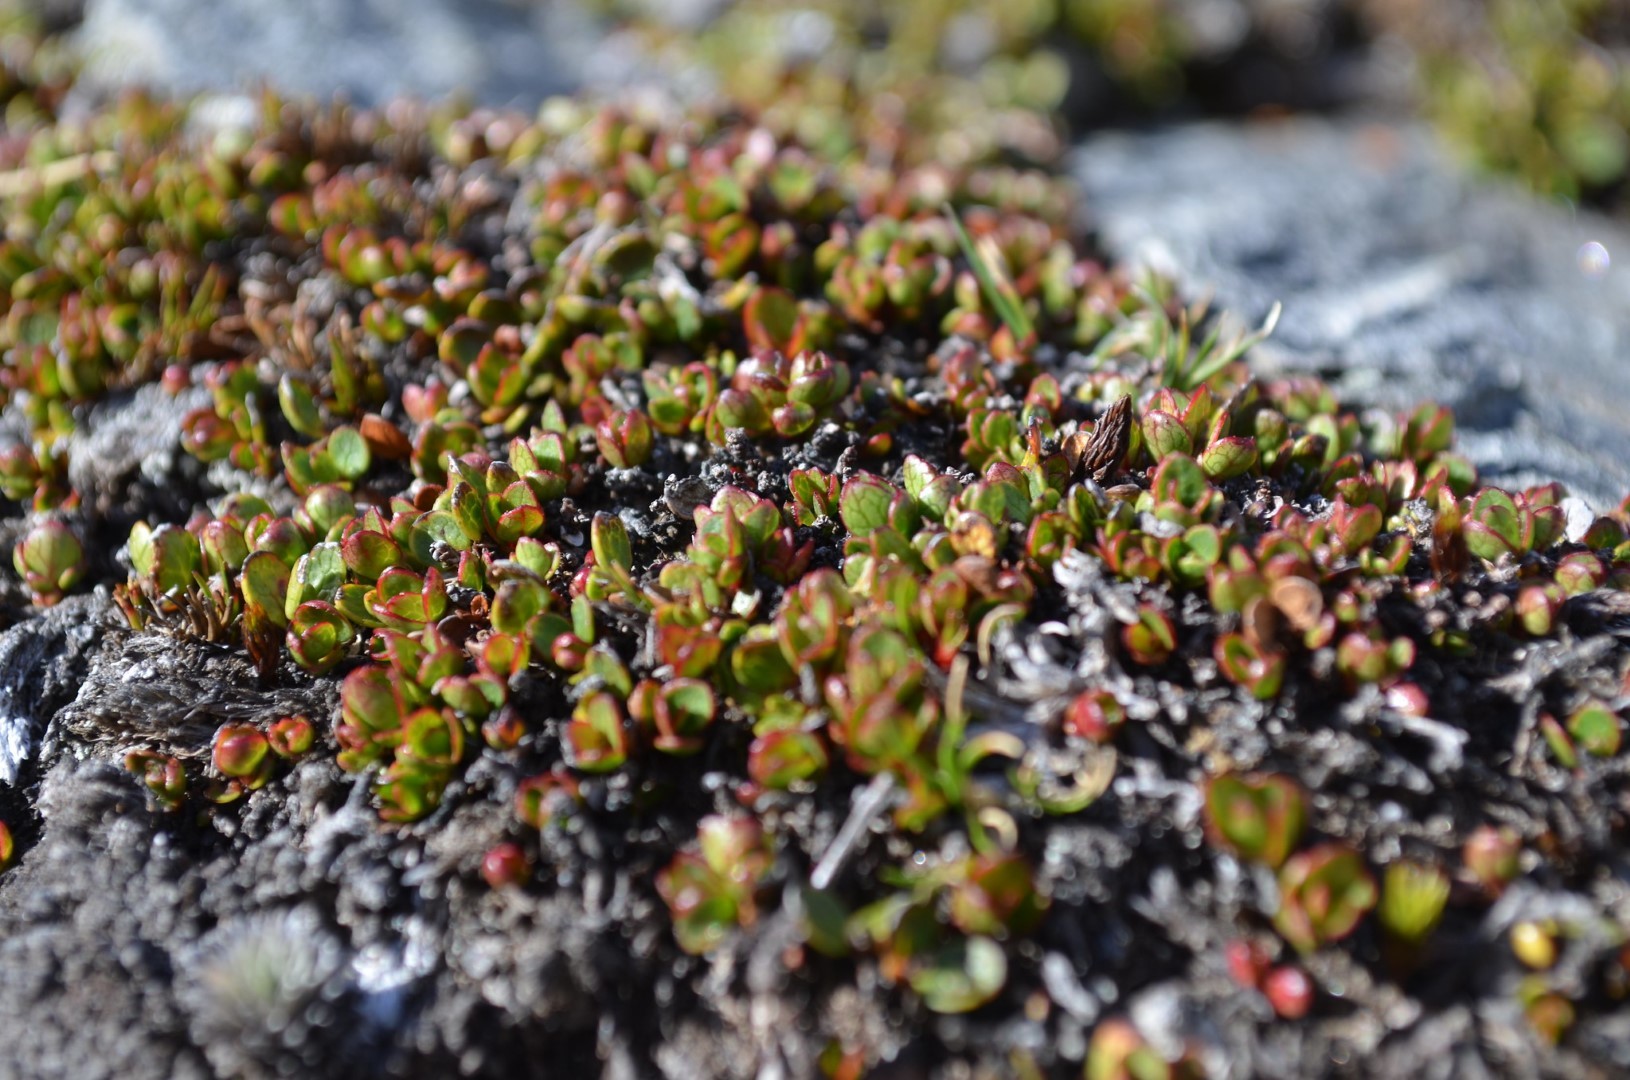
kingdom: Plantae
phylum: Tracheophyta
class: Magnoliopsida
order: Ericales
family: Ericaceae
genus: Gaultheria
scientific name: Gaultheria nubicola
